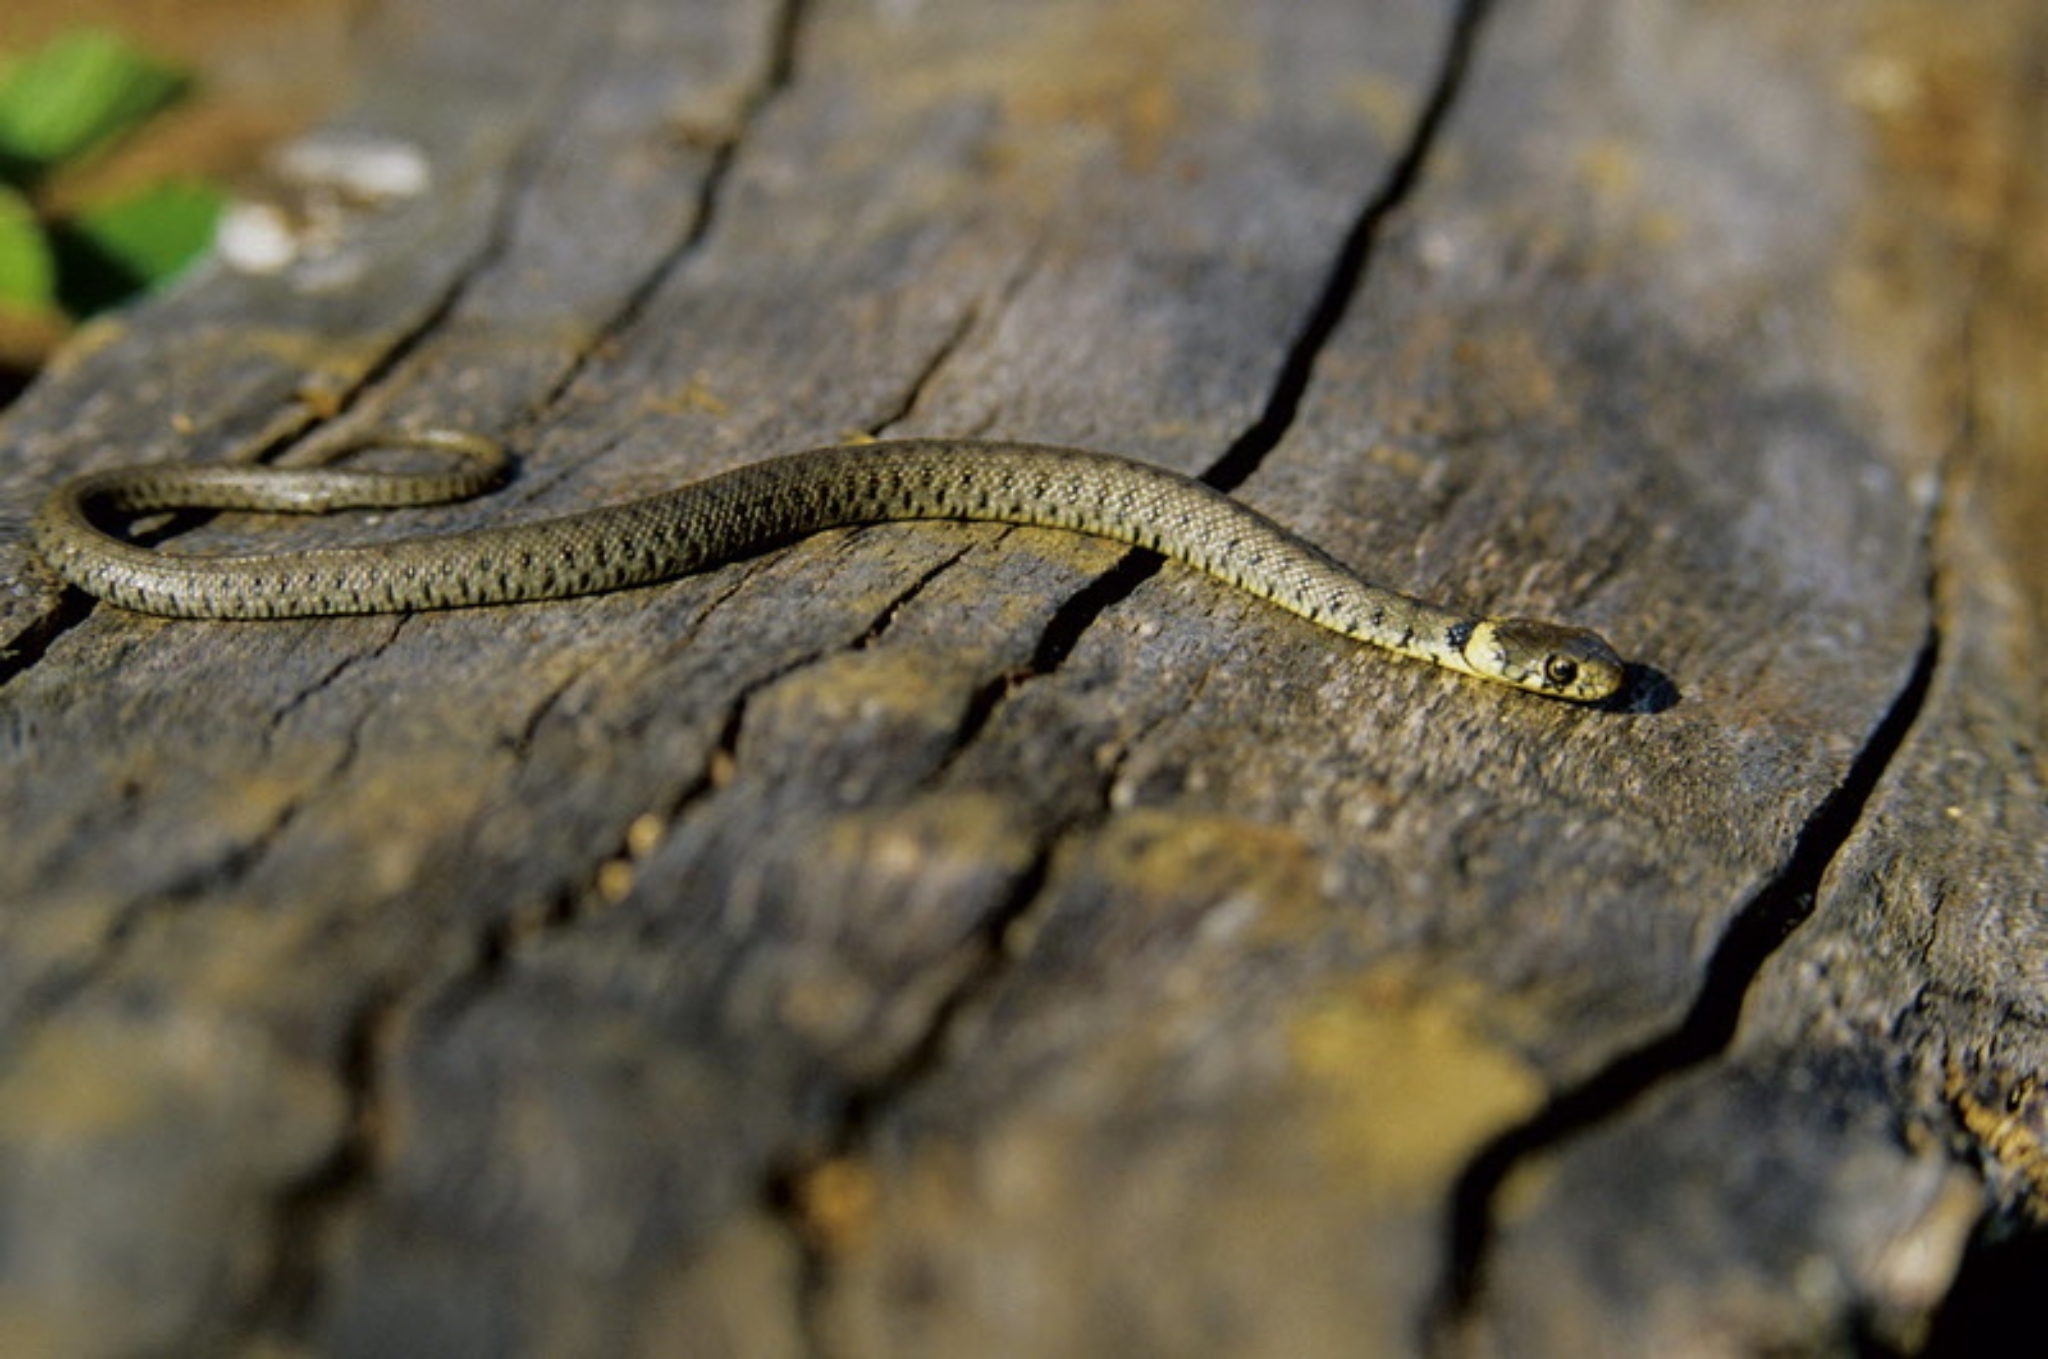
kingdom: Animalia
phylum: Chordata
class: Squamata
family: Colubridae
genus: Natrix
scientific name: Natrix helvetica
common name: Banded grass snake
